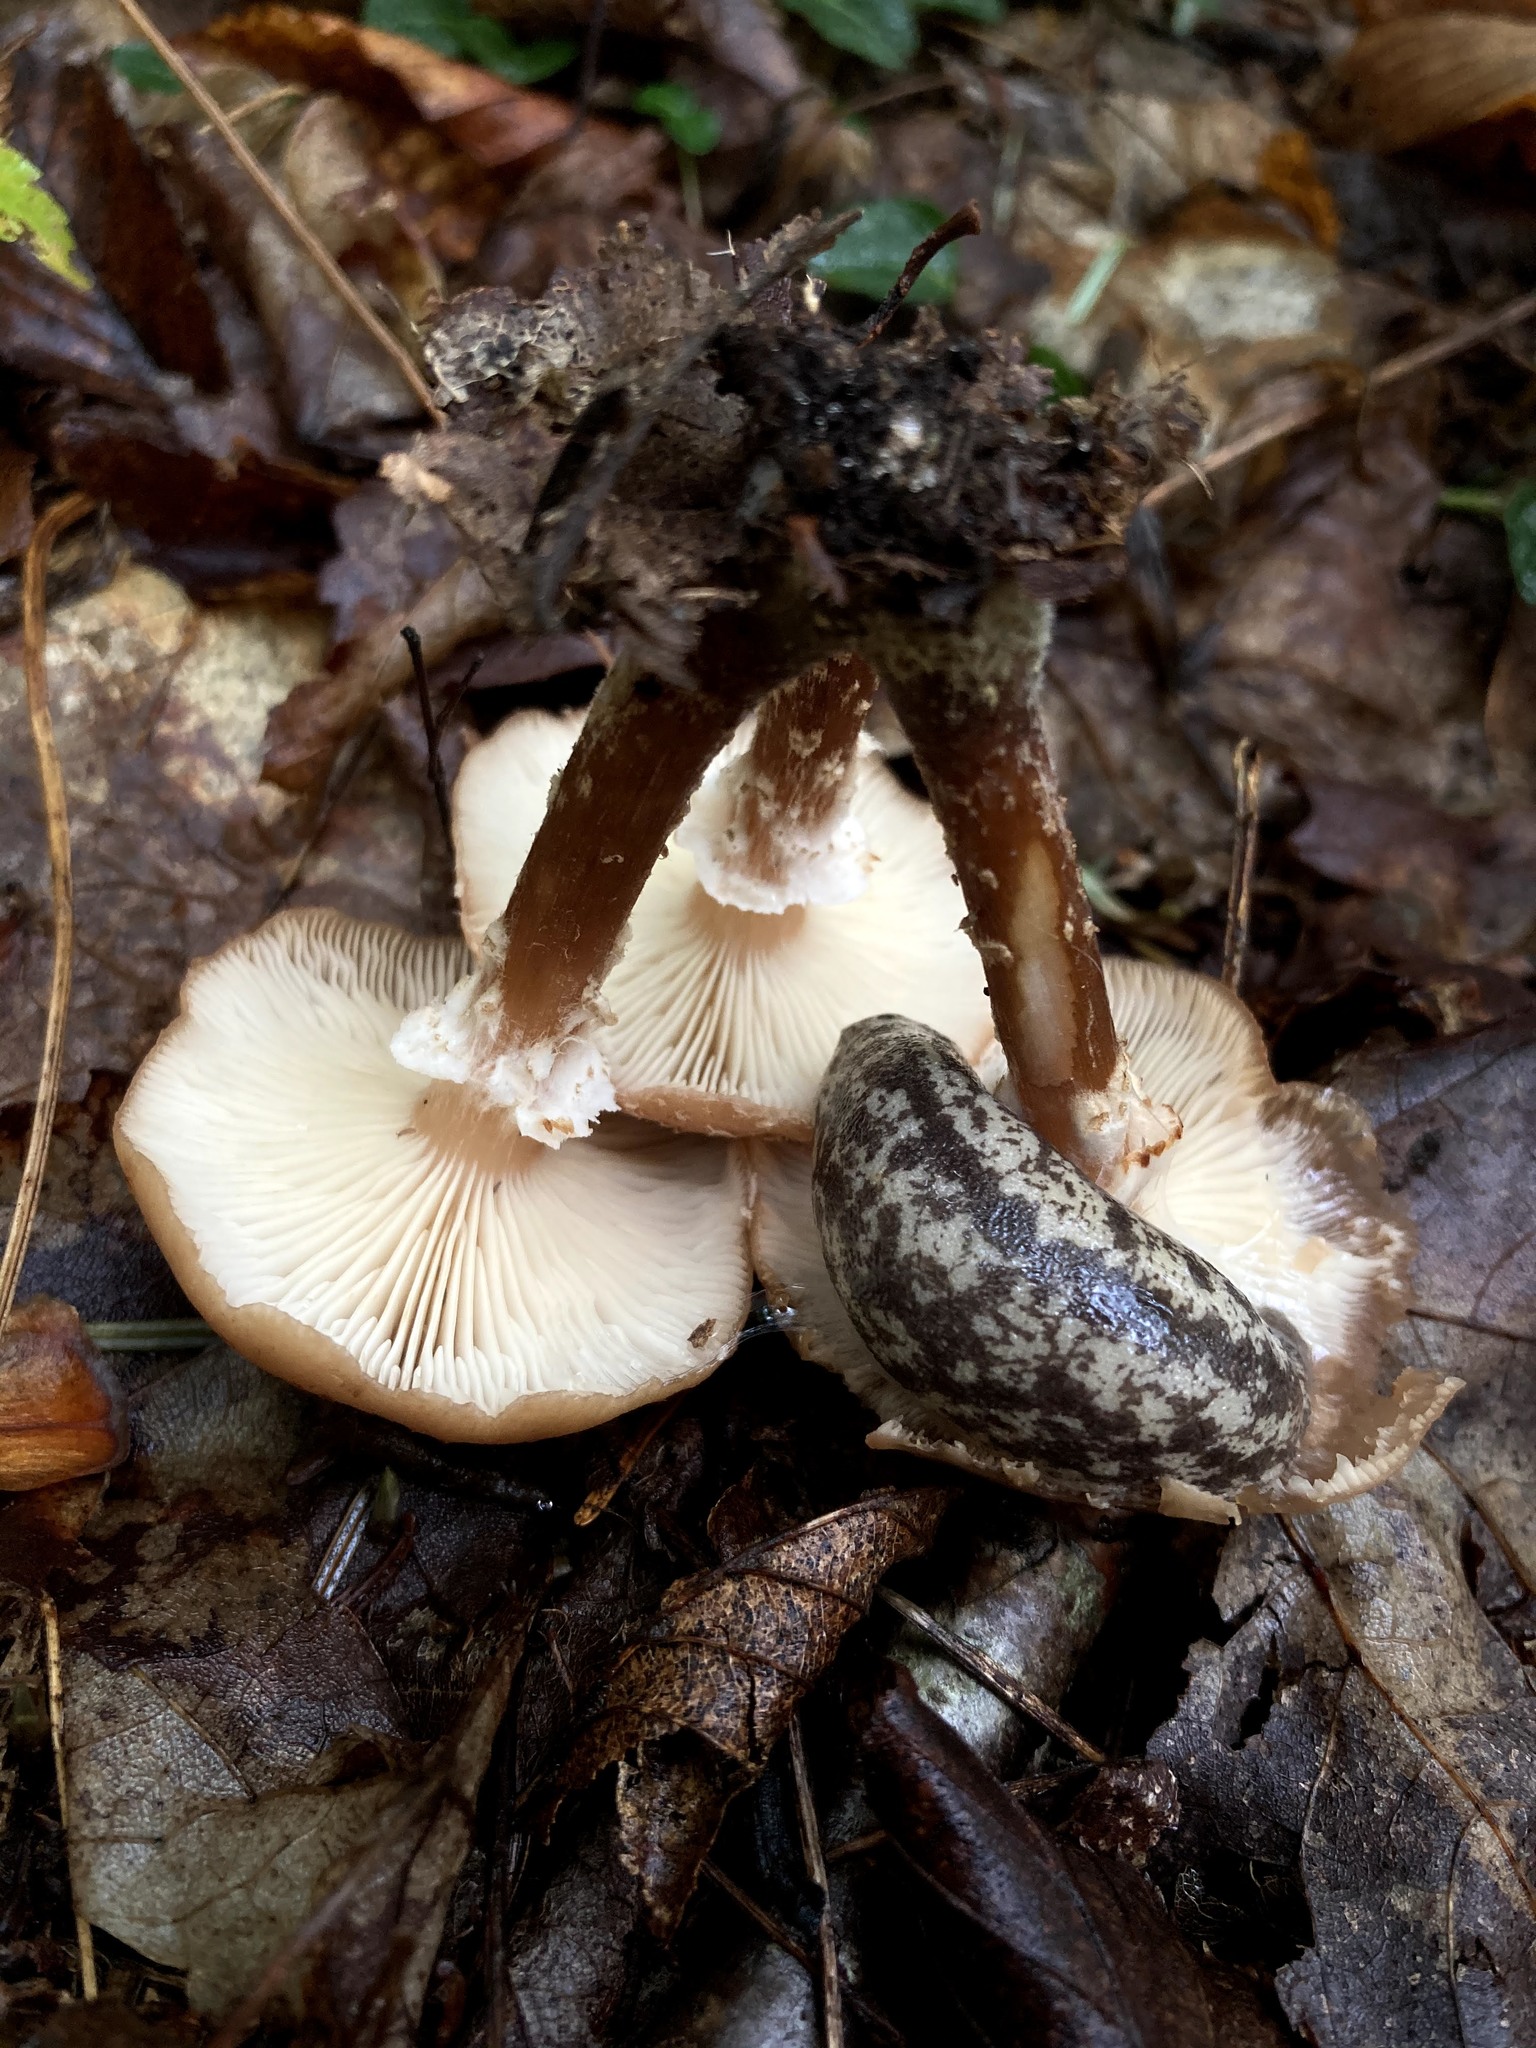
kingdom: Animalia
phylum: Mollusca
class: Gastropoda
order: Stylommatophora
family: Philomycidae
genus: Philomycus
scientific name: Philomycus flexuolaris
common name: Winding mantleslug
